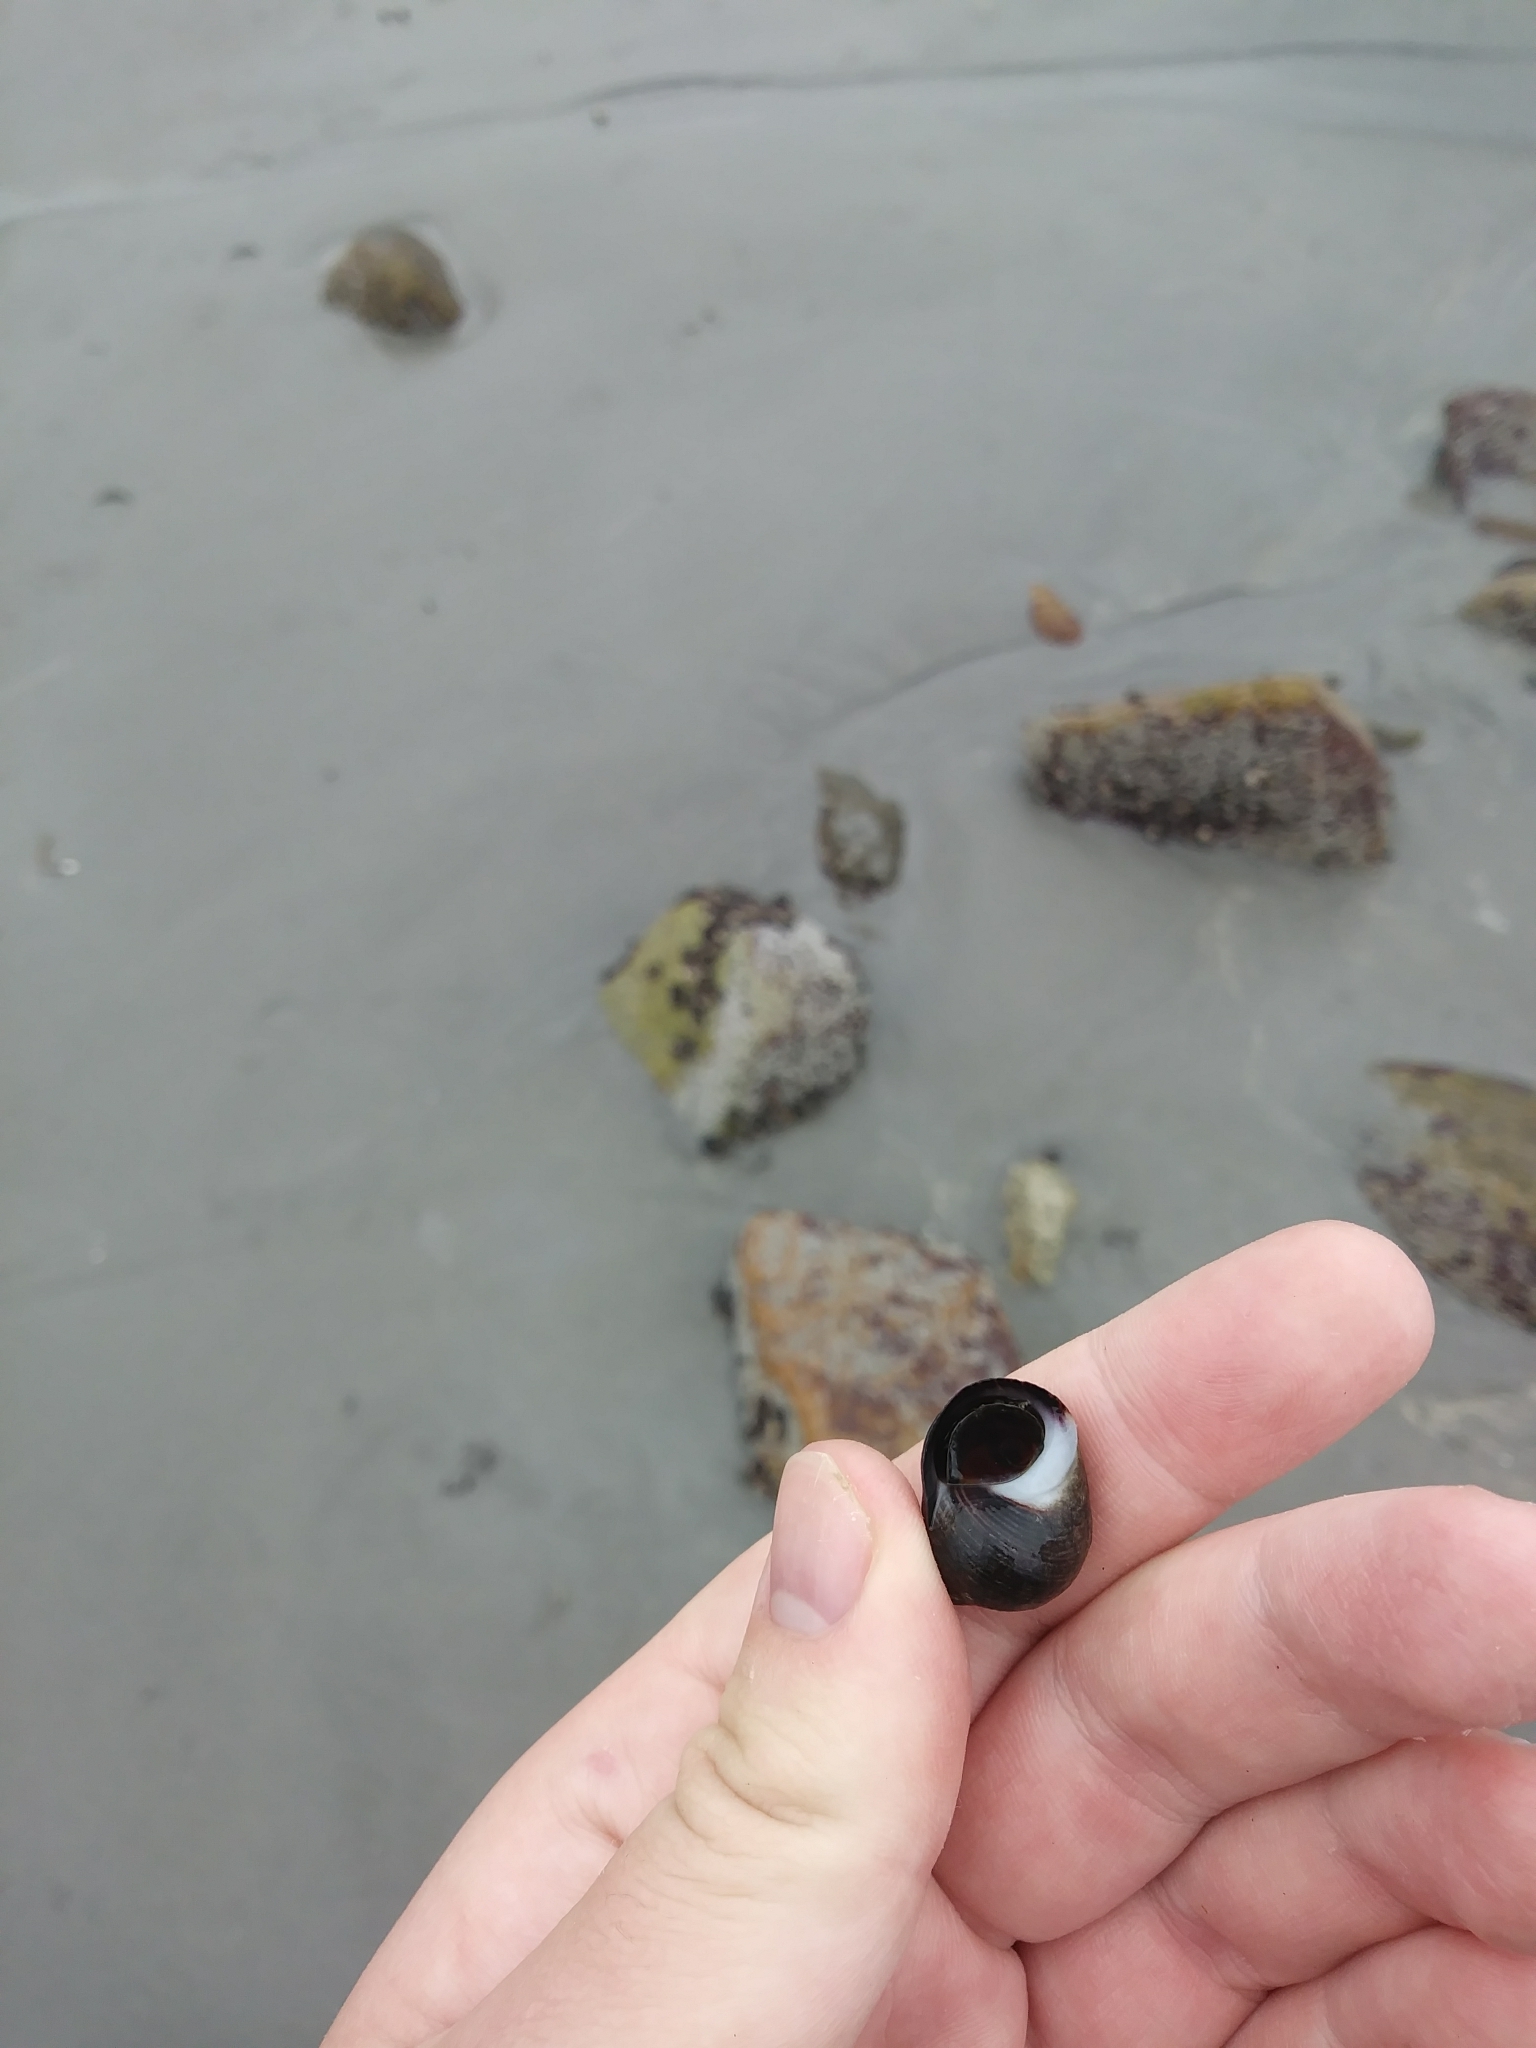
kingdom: Animalia
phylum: Mollusca
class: Gastropoda
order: Littorinimorpha
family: Littorinidae
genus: Littorina
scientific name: Littorina littorea
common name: Common periwinkle
